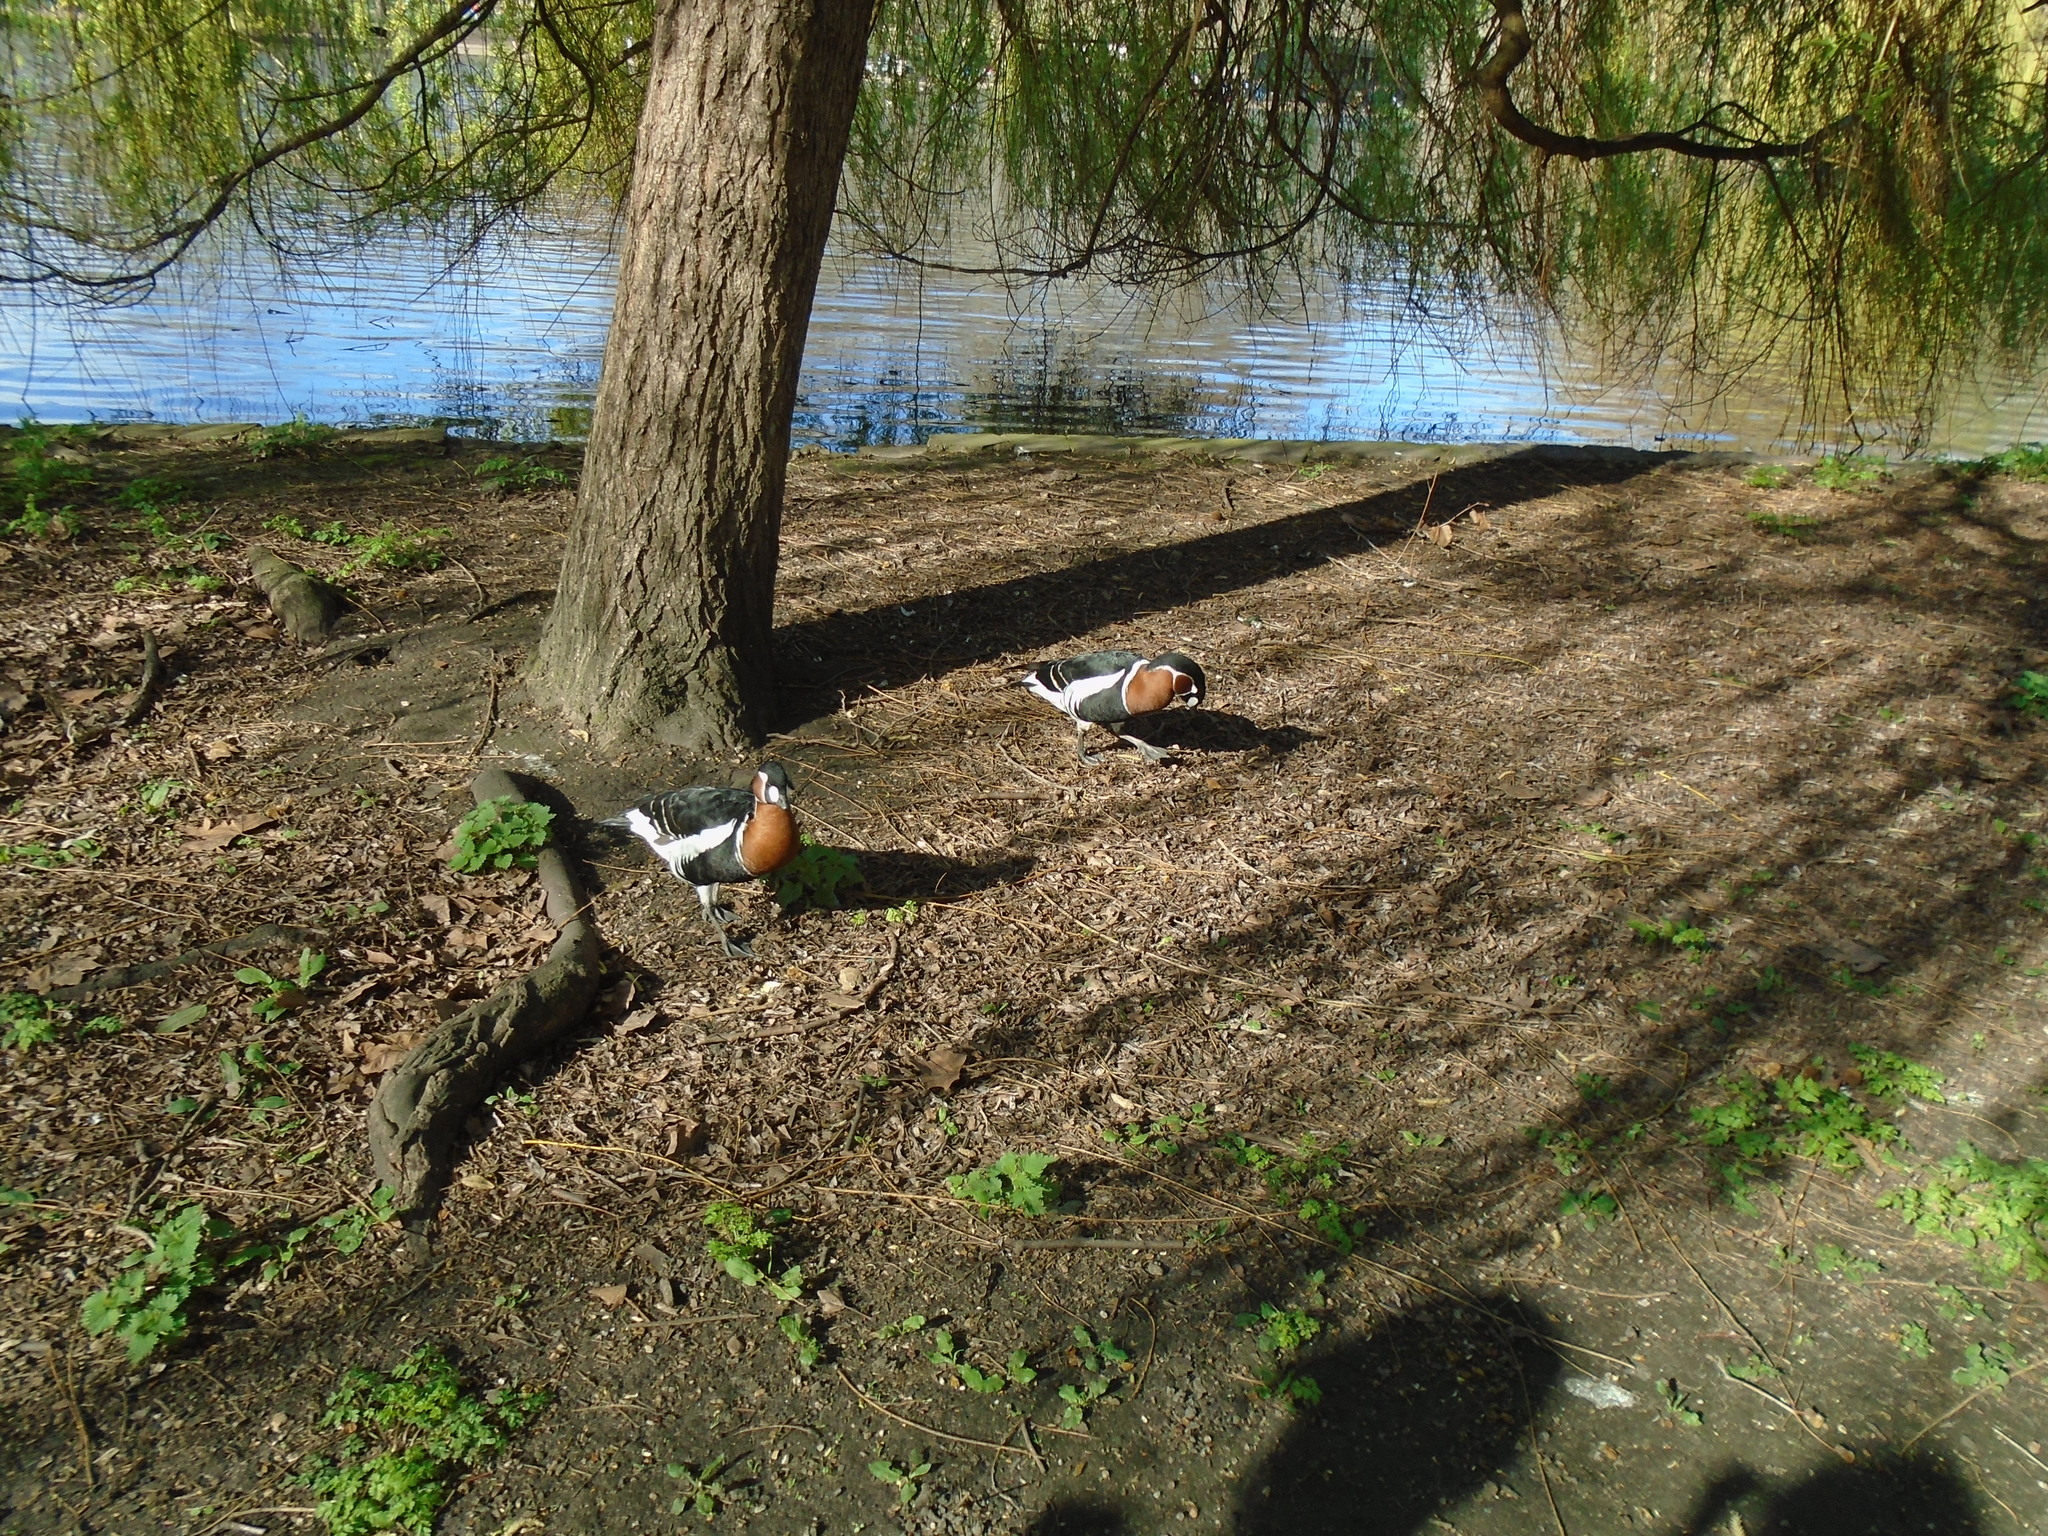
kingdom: Animalia
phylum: Chordata
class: Aves
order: Anseriformes
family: Anatidae
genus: Branta
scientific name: Branta ruficollis
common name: Red-breasted goose
